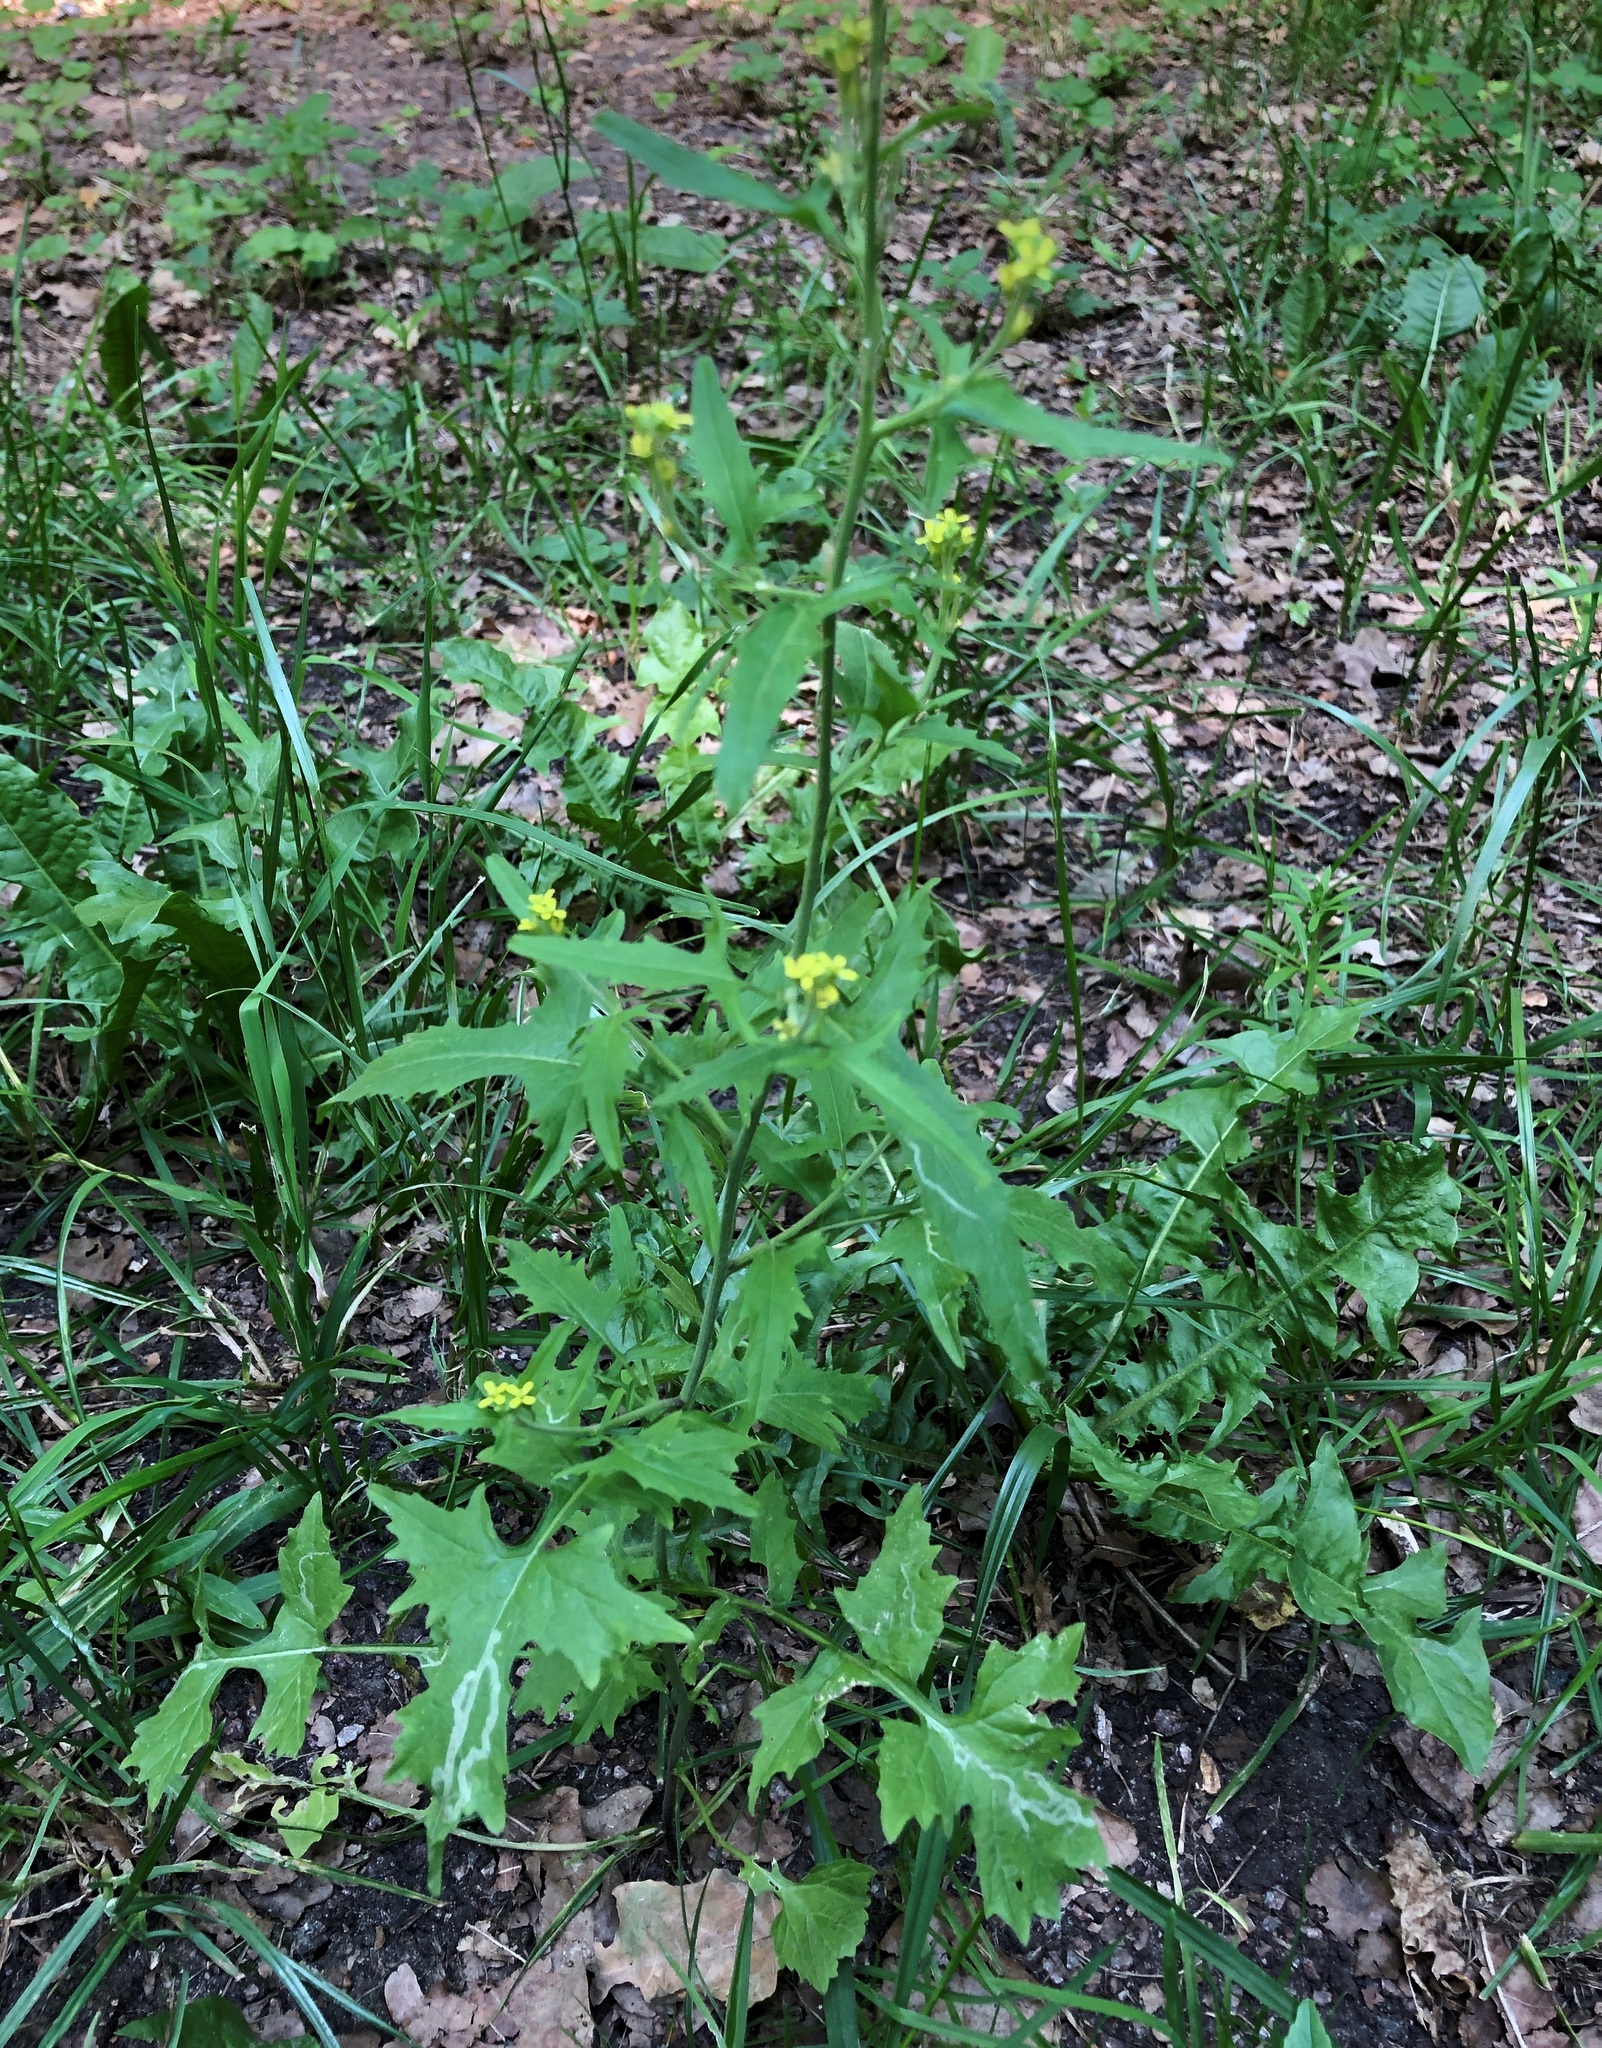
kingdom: Plantae
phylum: Tracheophyta
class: Magnoliopsida
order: Brassicales
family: Brassicaceae
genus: Sisymbrium
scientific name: Sisymbrium officinale
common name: Hedge mustard
